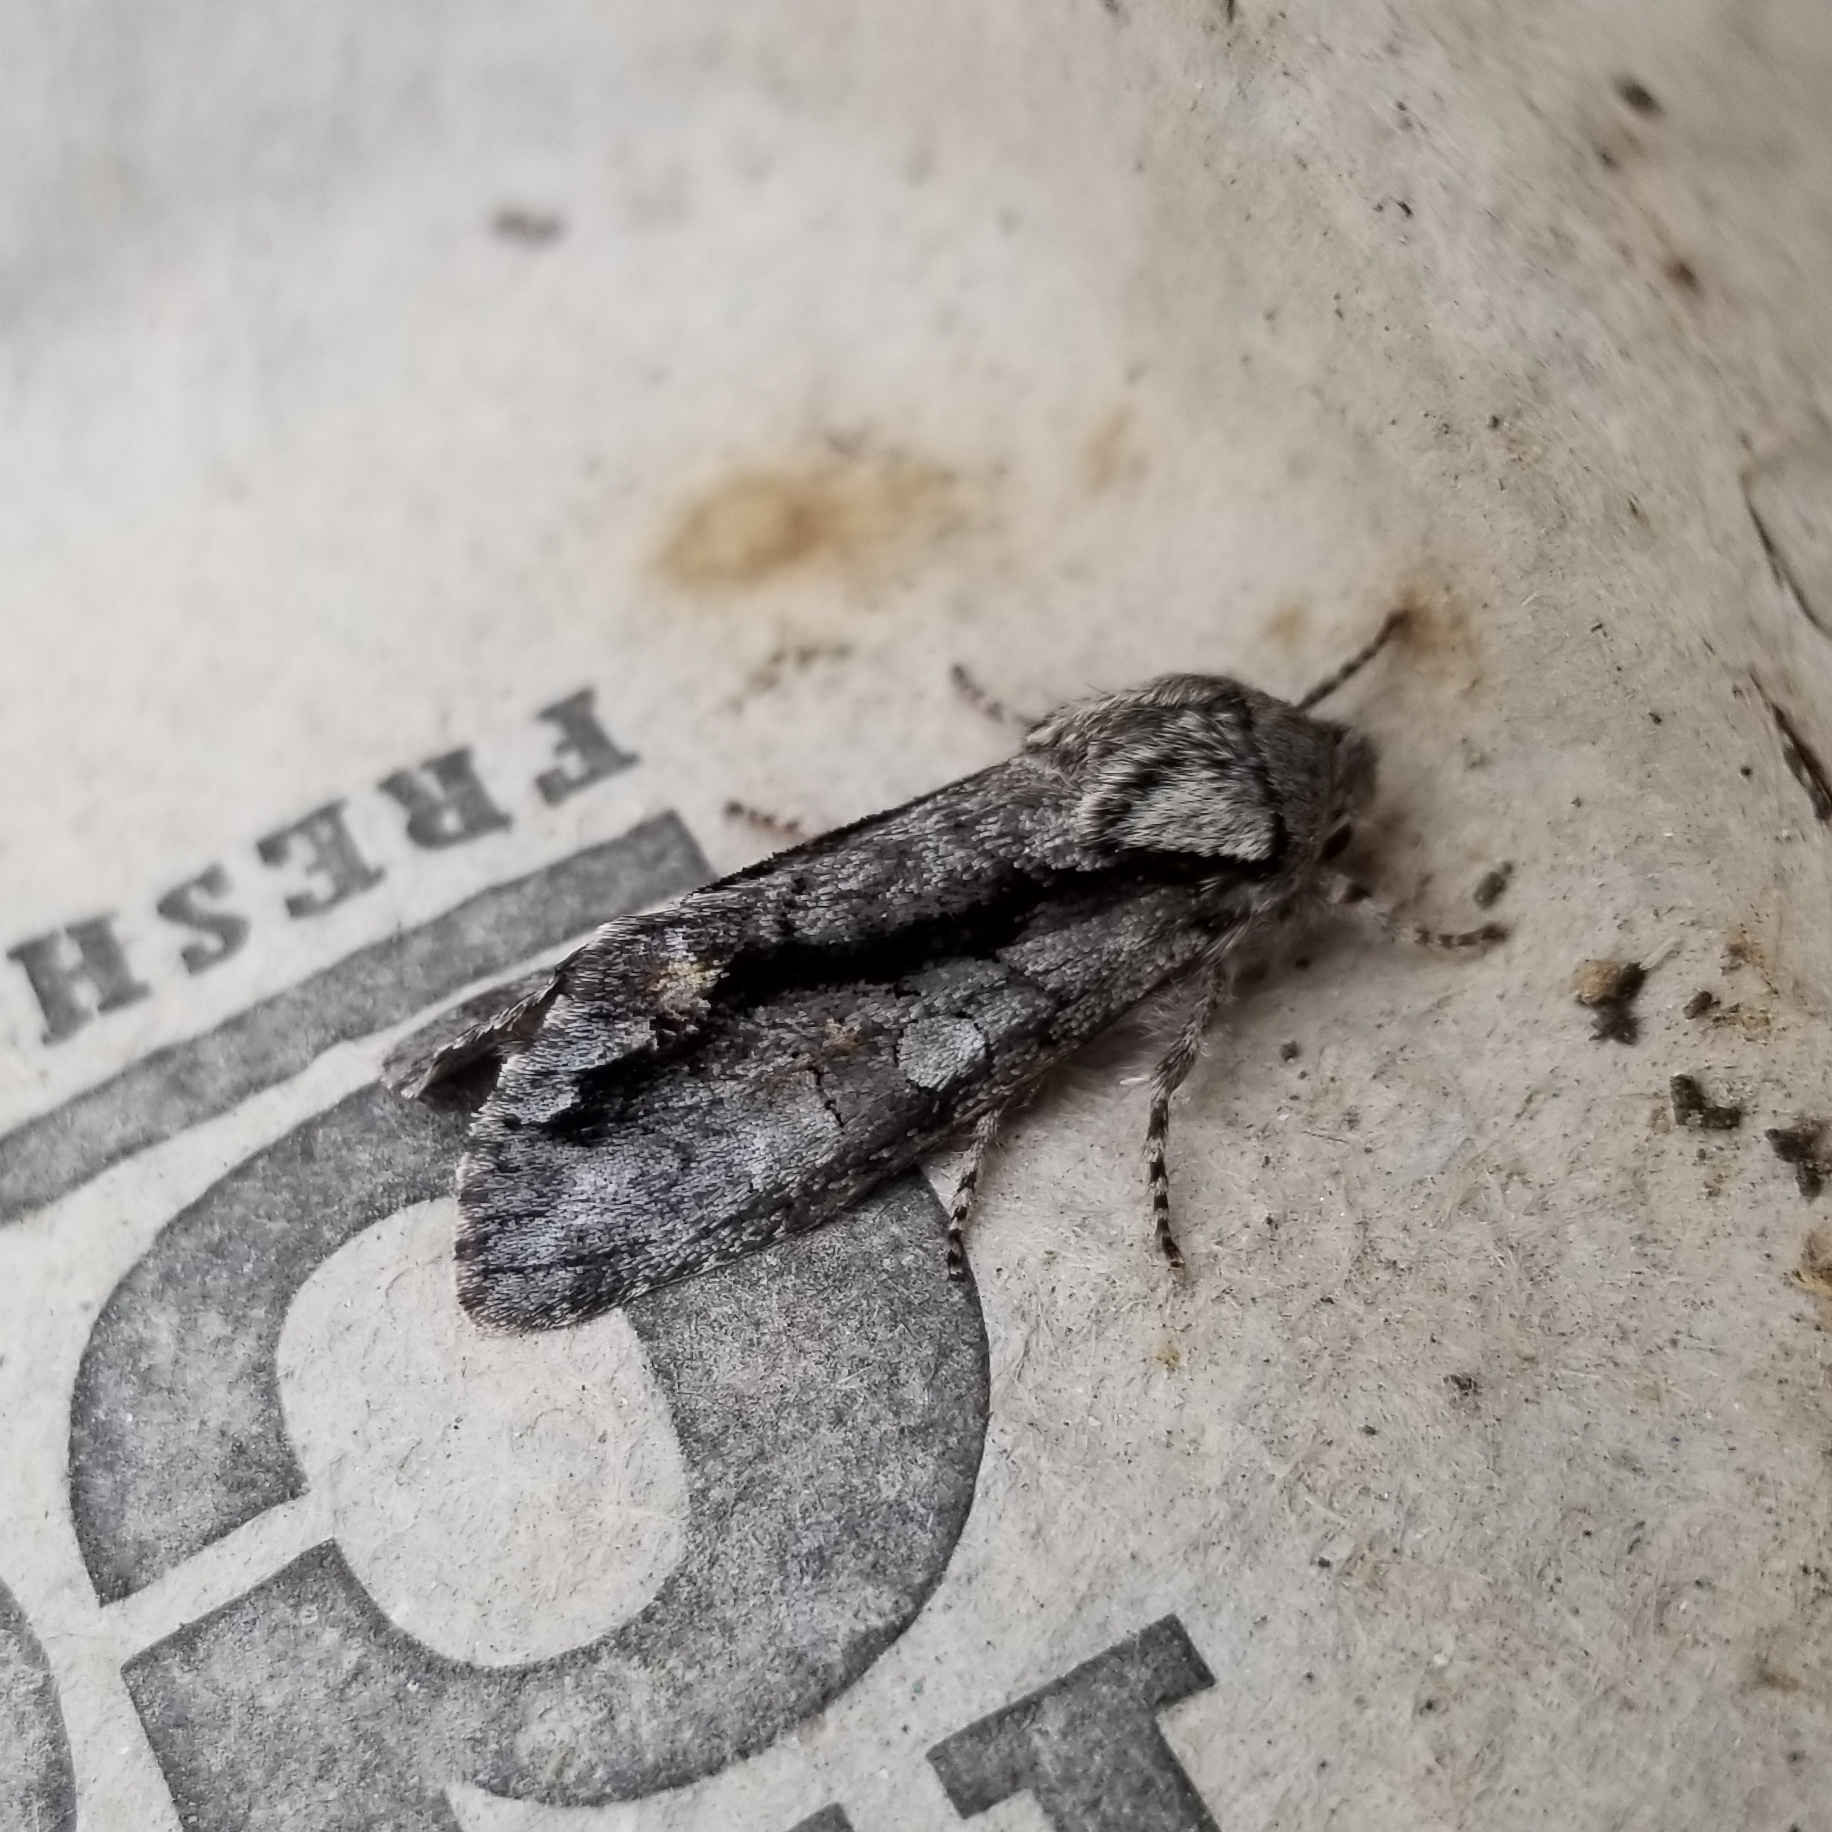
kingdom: Animalia
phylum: Arthropoda
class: Insecta
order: Lepidoptera
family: Noctuidae
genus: Psaphida
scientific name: Psaphida electilis
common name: Chosen sallow
